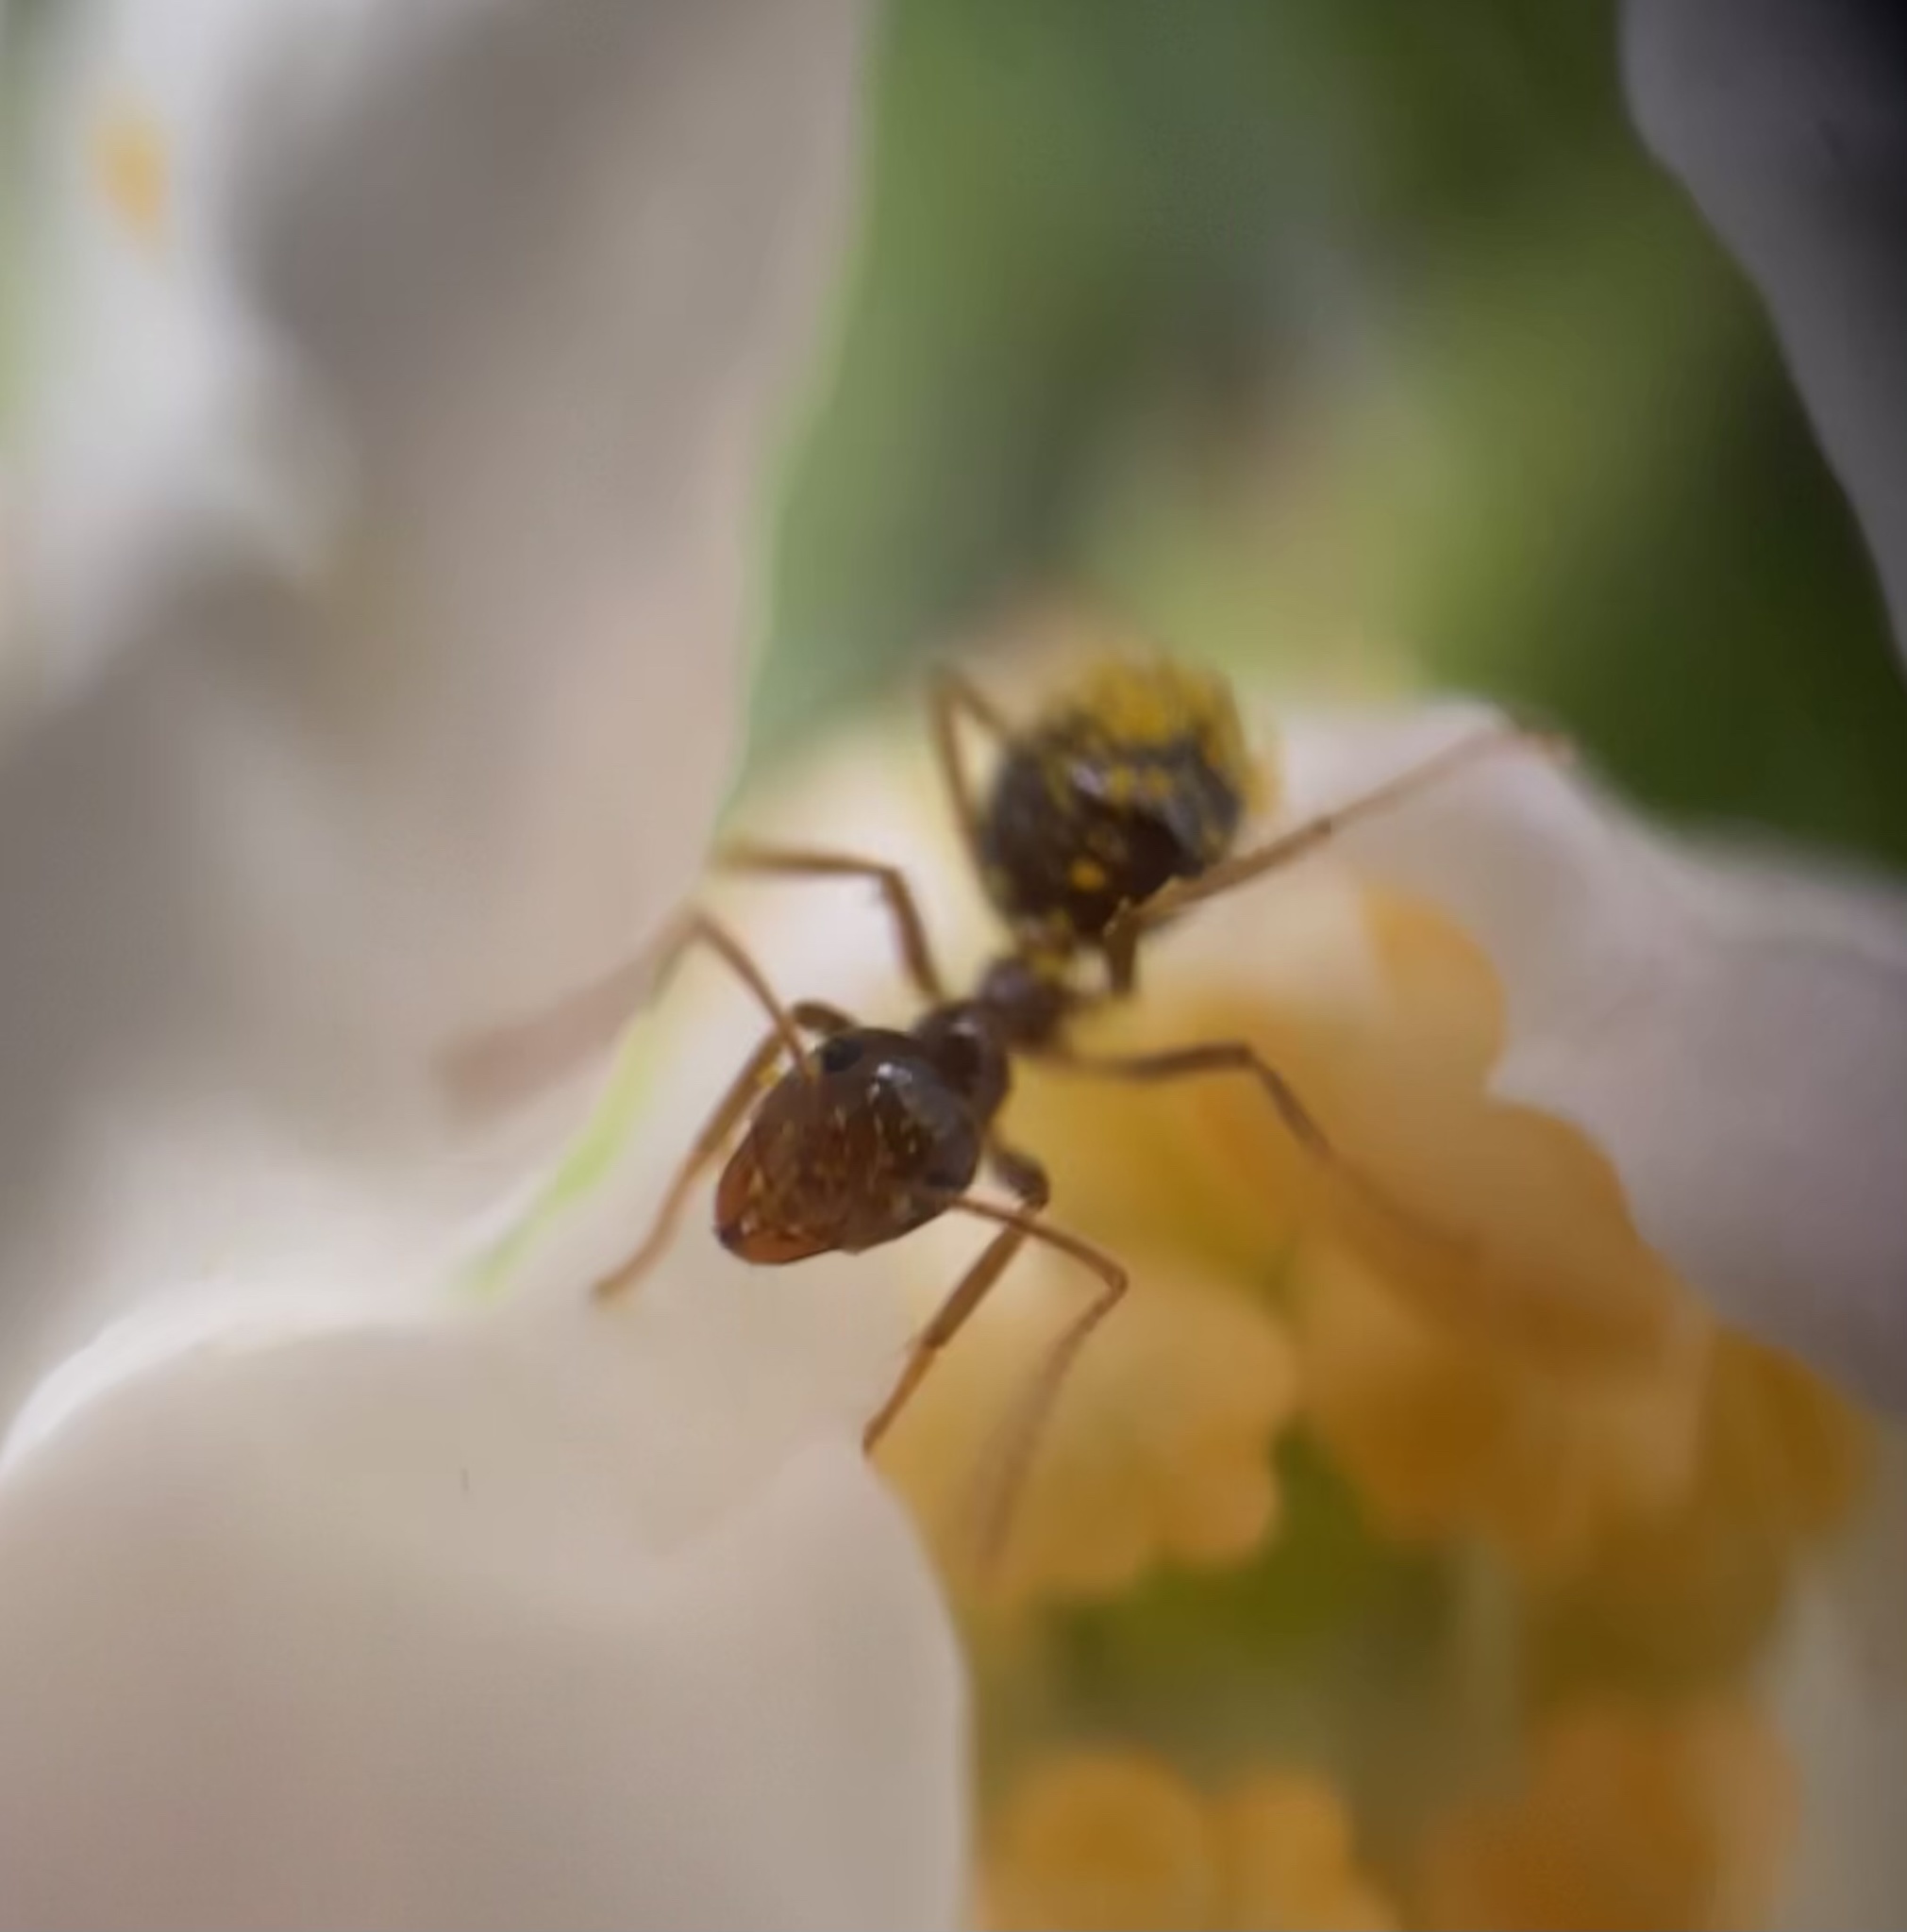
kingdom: Animalia
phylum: Arthropoda
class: Insecta
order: Hymenoptera
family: Formicidae
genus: Prenolepis
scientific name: Prenolepis imparis
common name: Small honey ant
